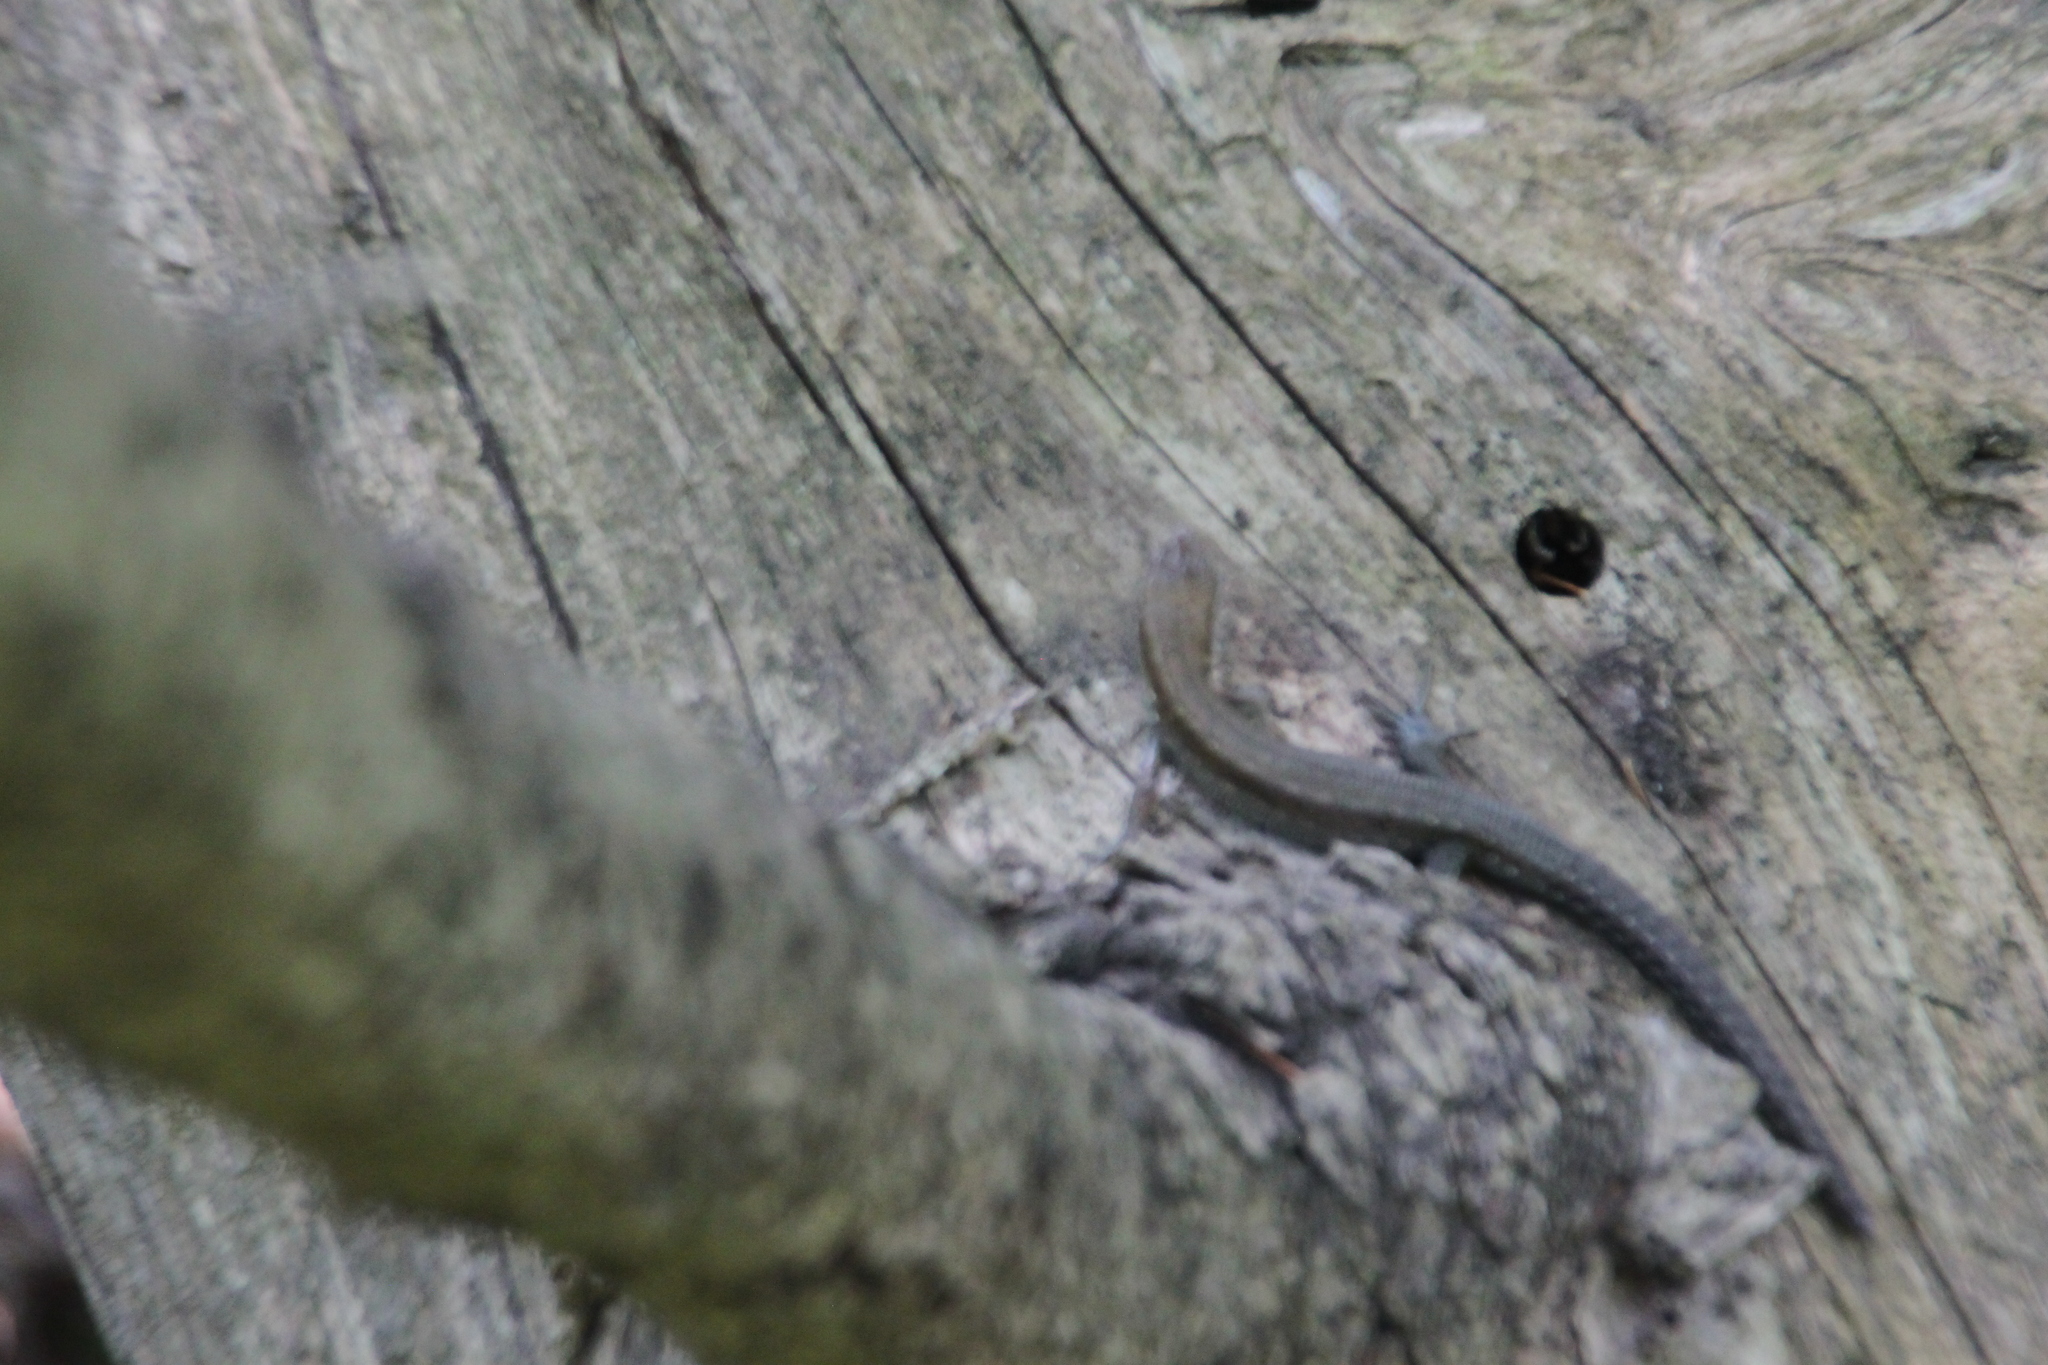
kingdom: Animalia
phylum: Chordata
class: Squamata
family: Lacertidae
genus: Zootoca
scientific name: Zootoca vivipara
